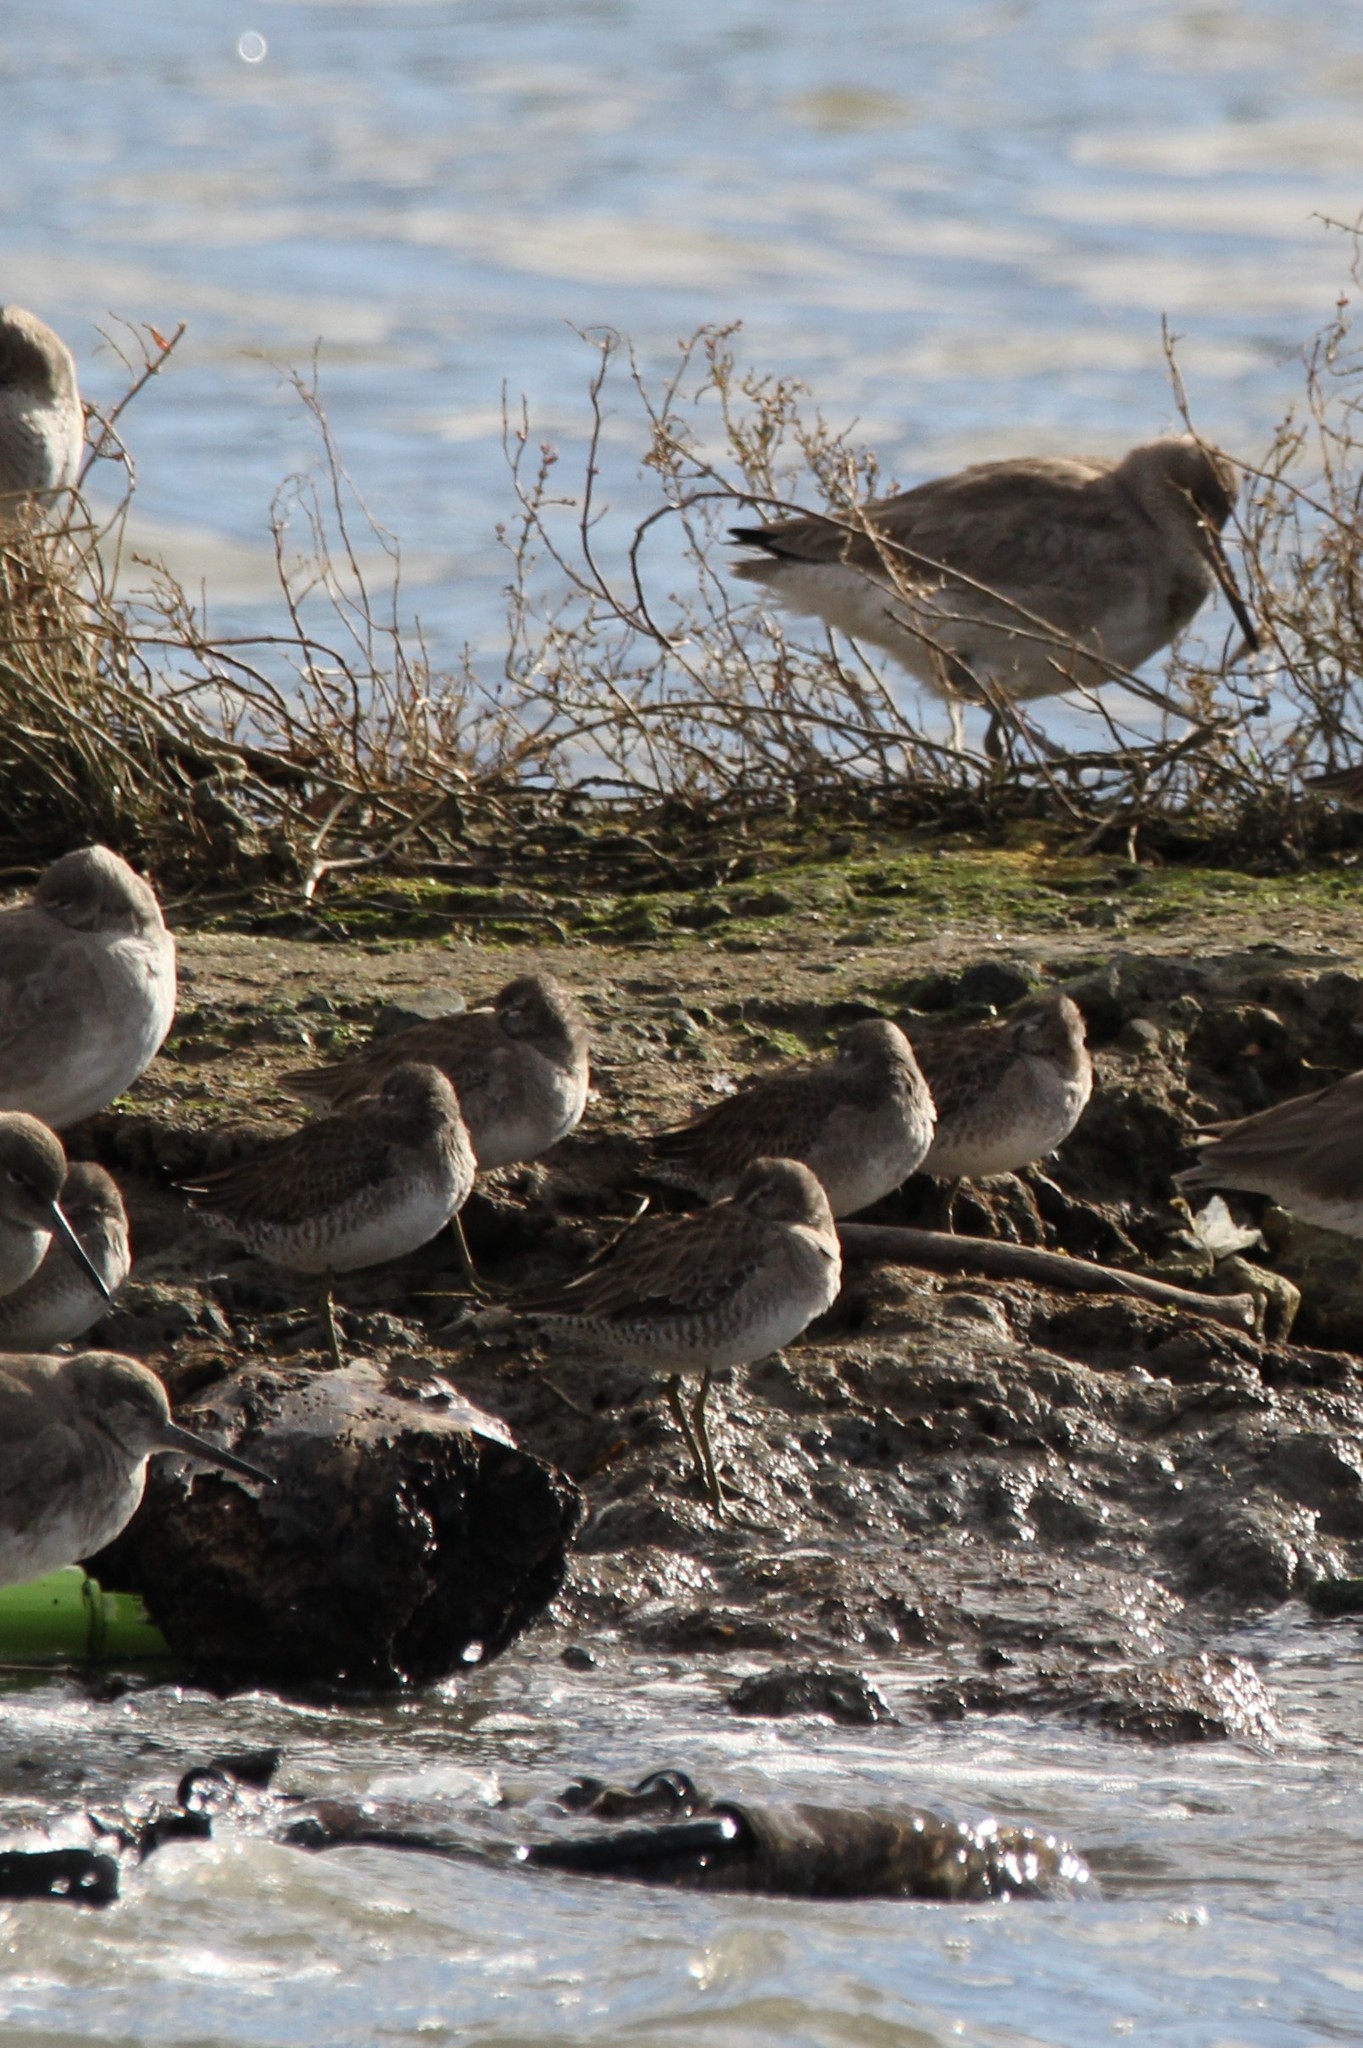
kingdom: Animalia
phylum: Chordata
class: Aves
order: Charadriiformes
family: Scolopacidae
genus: Limnodromus
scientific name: Limnodromus
